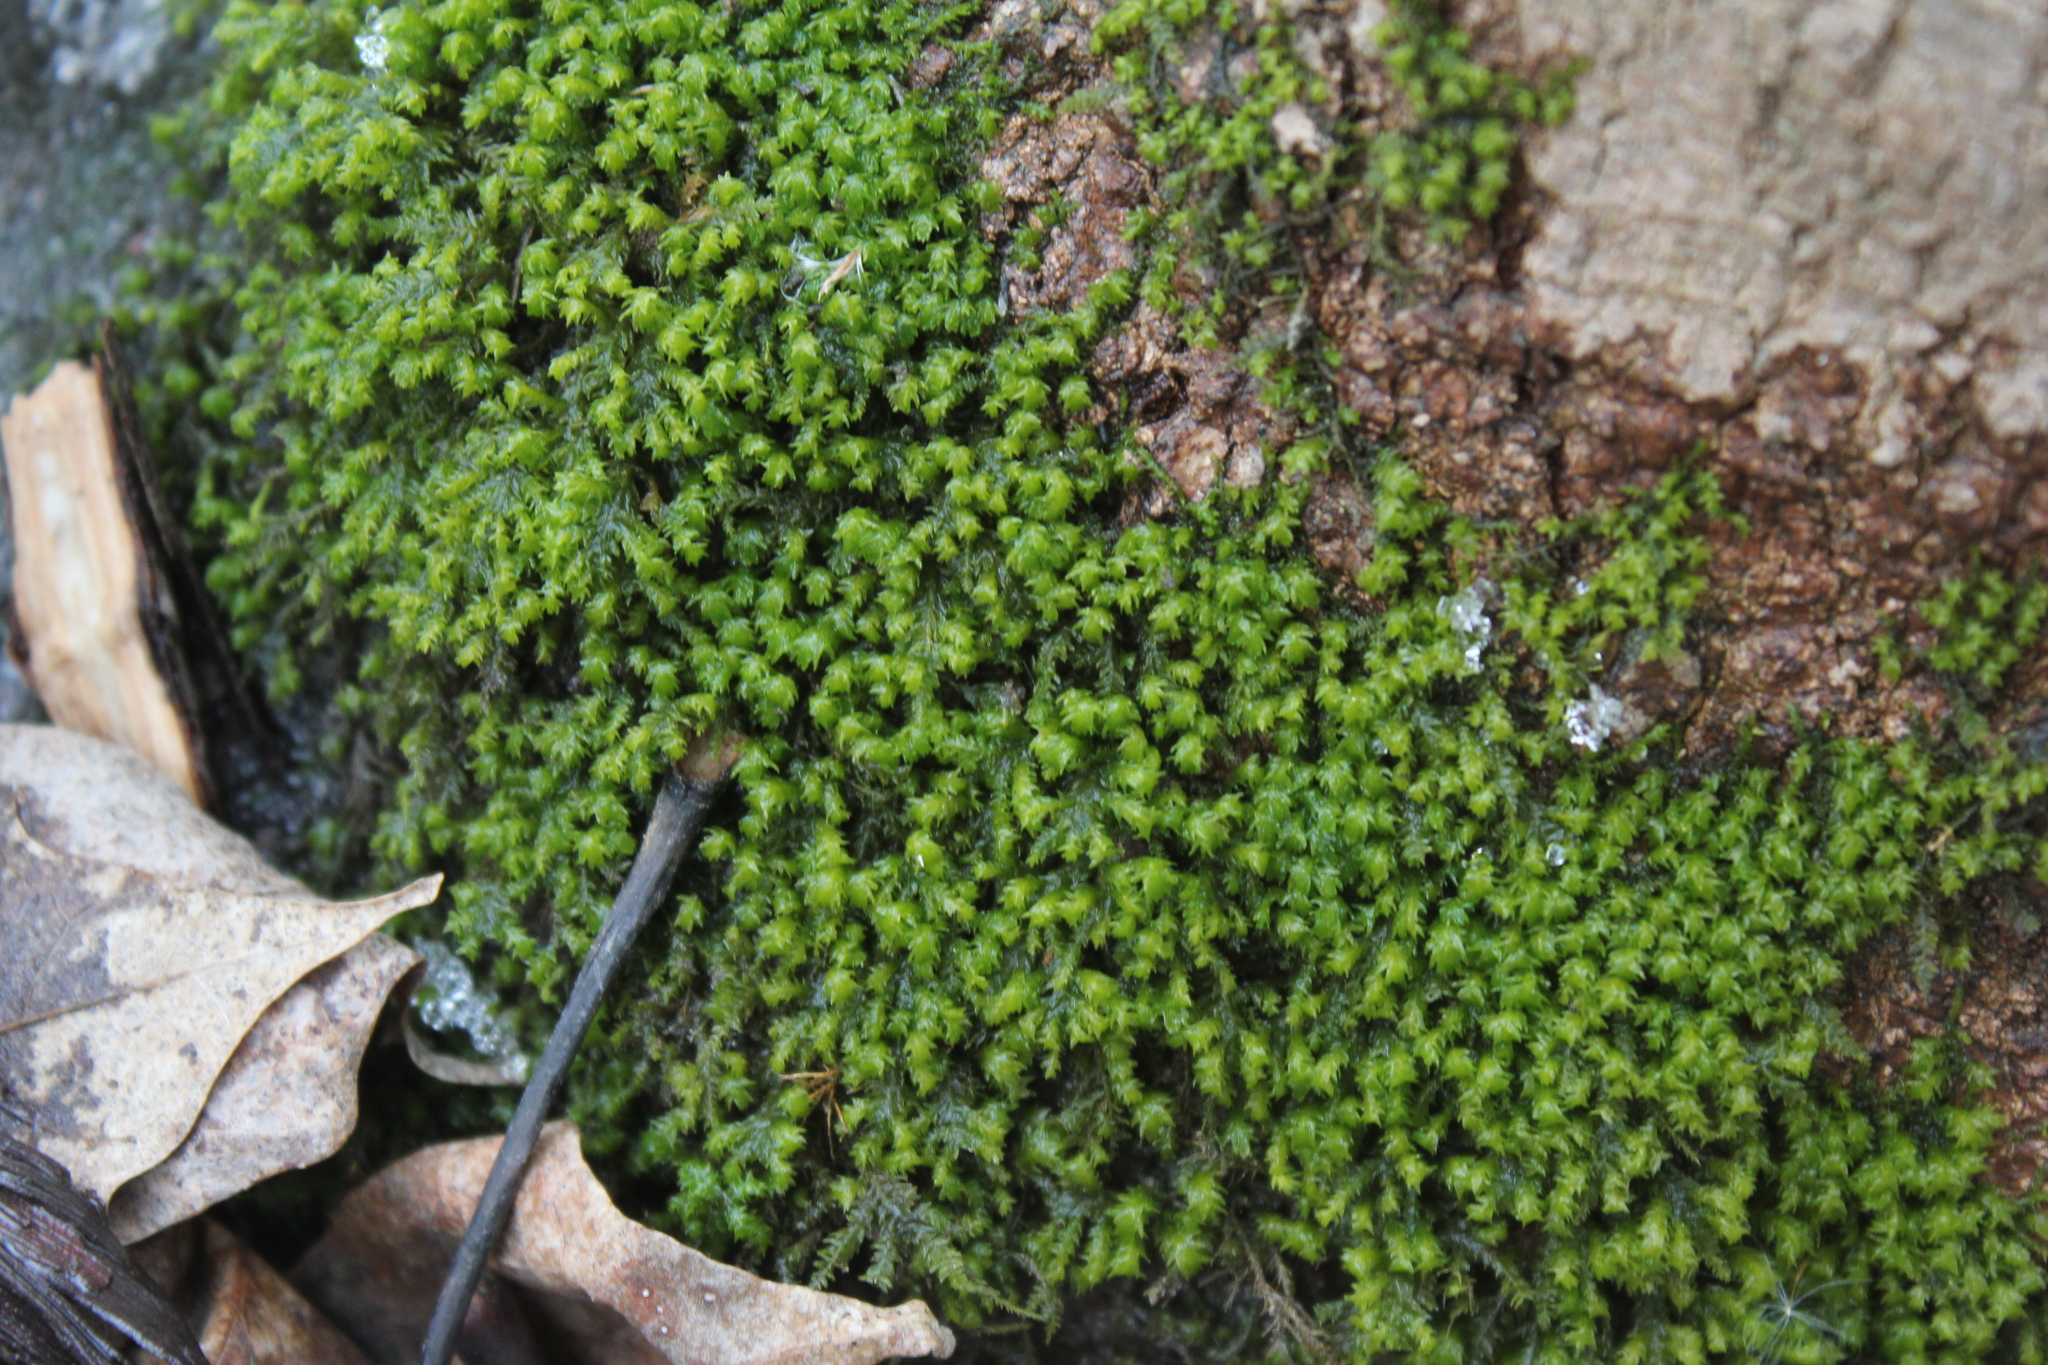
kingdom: Plantae
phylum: Bryophyta
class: Bryopsida
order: Hypnales
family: Neckeraceae
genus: Pseudanomodon
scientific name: Pseudanomodon attenuatus
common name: Tree-skirt moss
